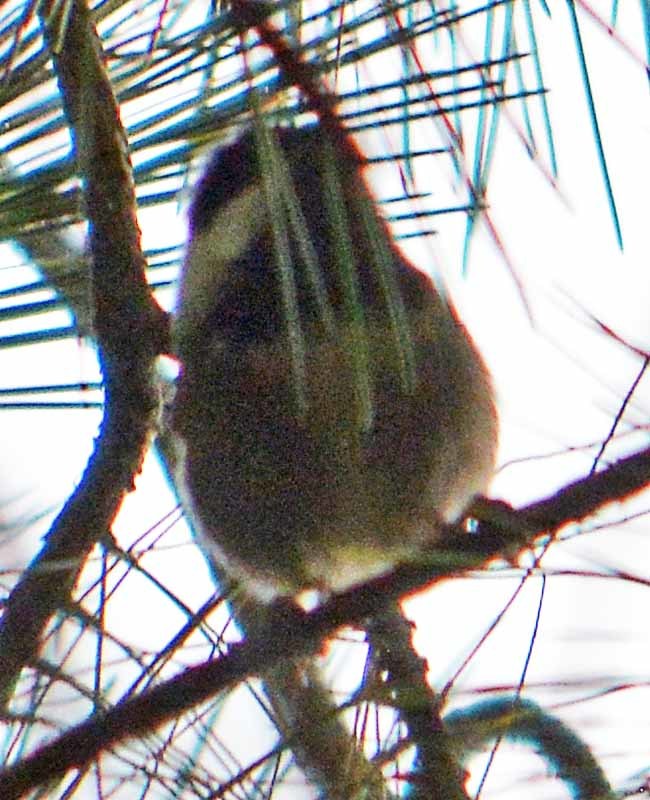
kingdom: Animalia
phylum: Chordata
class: Aves
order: Passeriformes
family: Paridae
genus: Poecile
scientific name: Poecile sclateri
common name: Mexican chickadee
